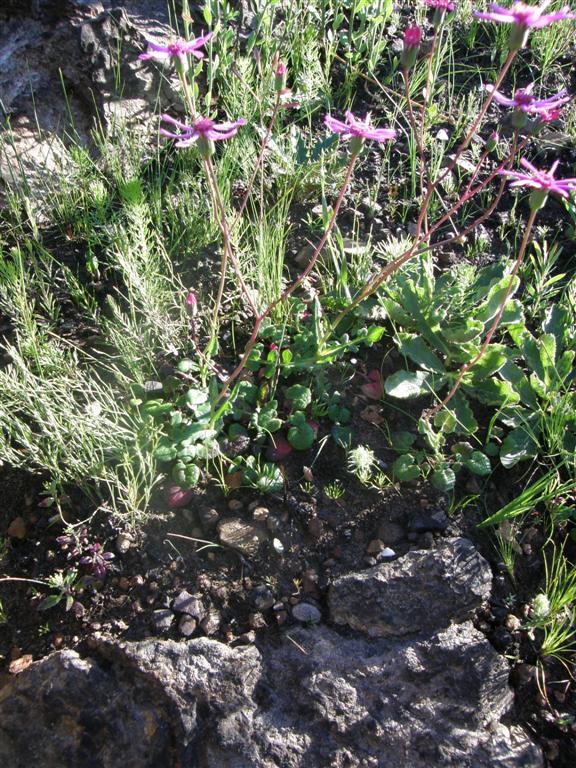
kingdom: Plantae
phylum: Tracheophyta
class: Magnoliopsida
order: Asterales
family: Asteraceae
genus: Senecio
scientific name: Senecio cymbalariifolius
